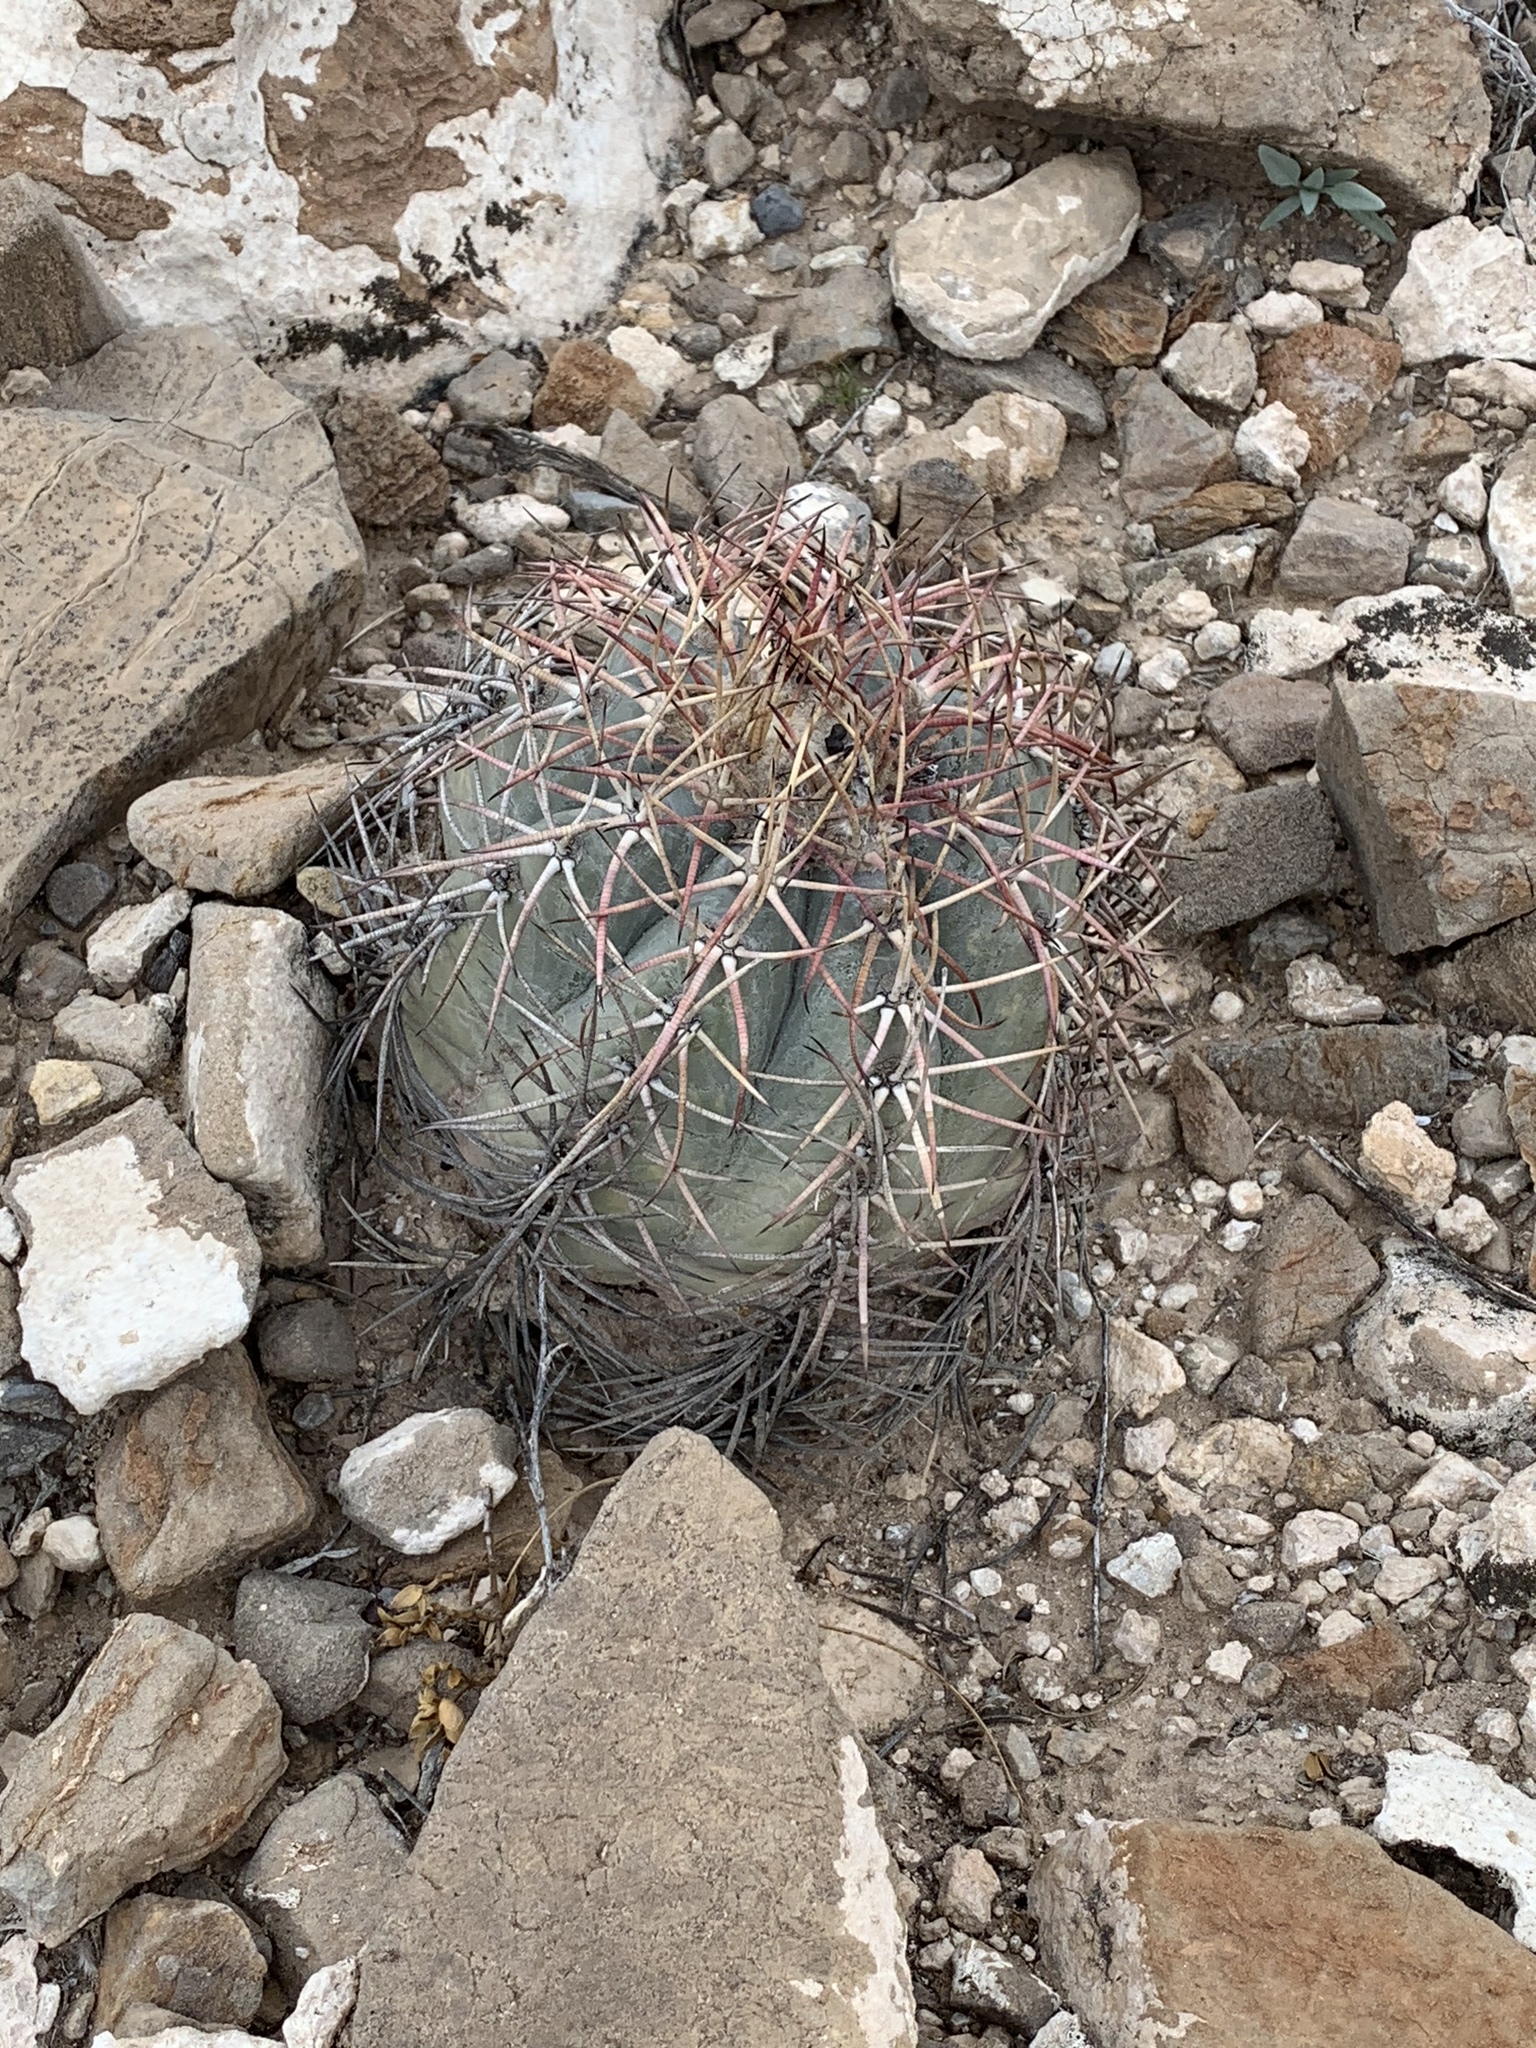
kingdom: Plantae
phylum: Tracheophyta
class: Magnoliopsida
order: Caryophyllales
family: Cactaceae
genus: Echinocactus
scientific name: Echinocactus horizonthalonius
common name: Devilshead
